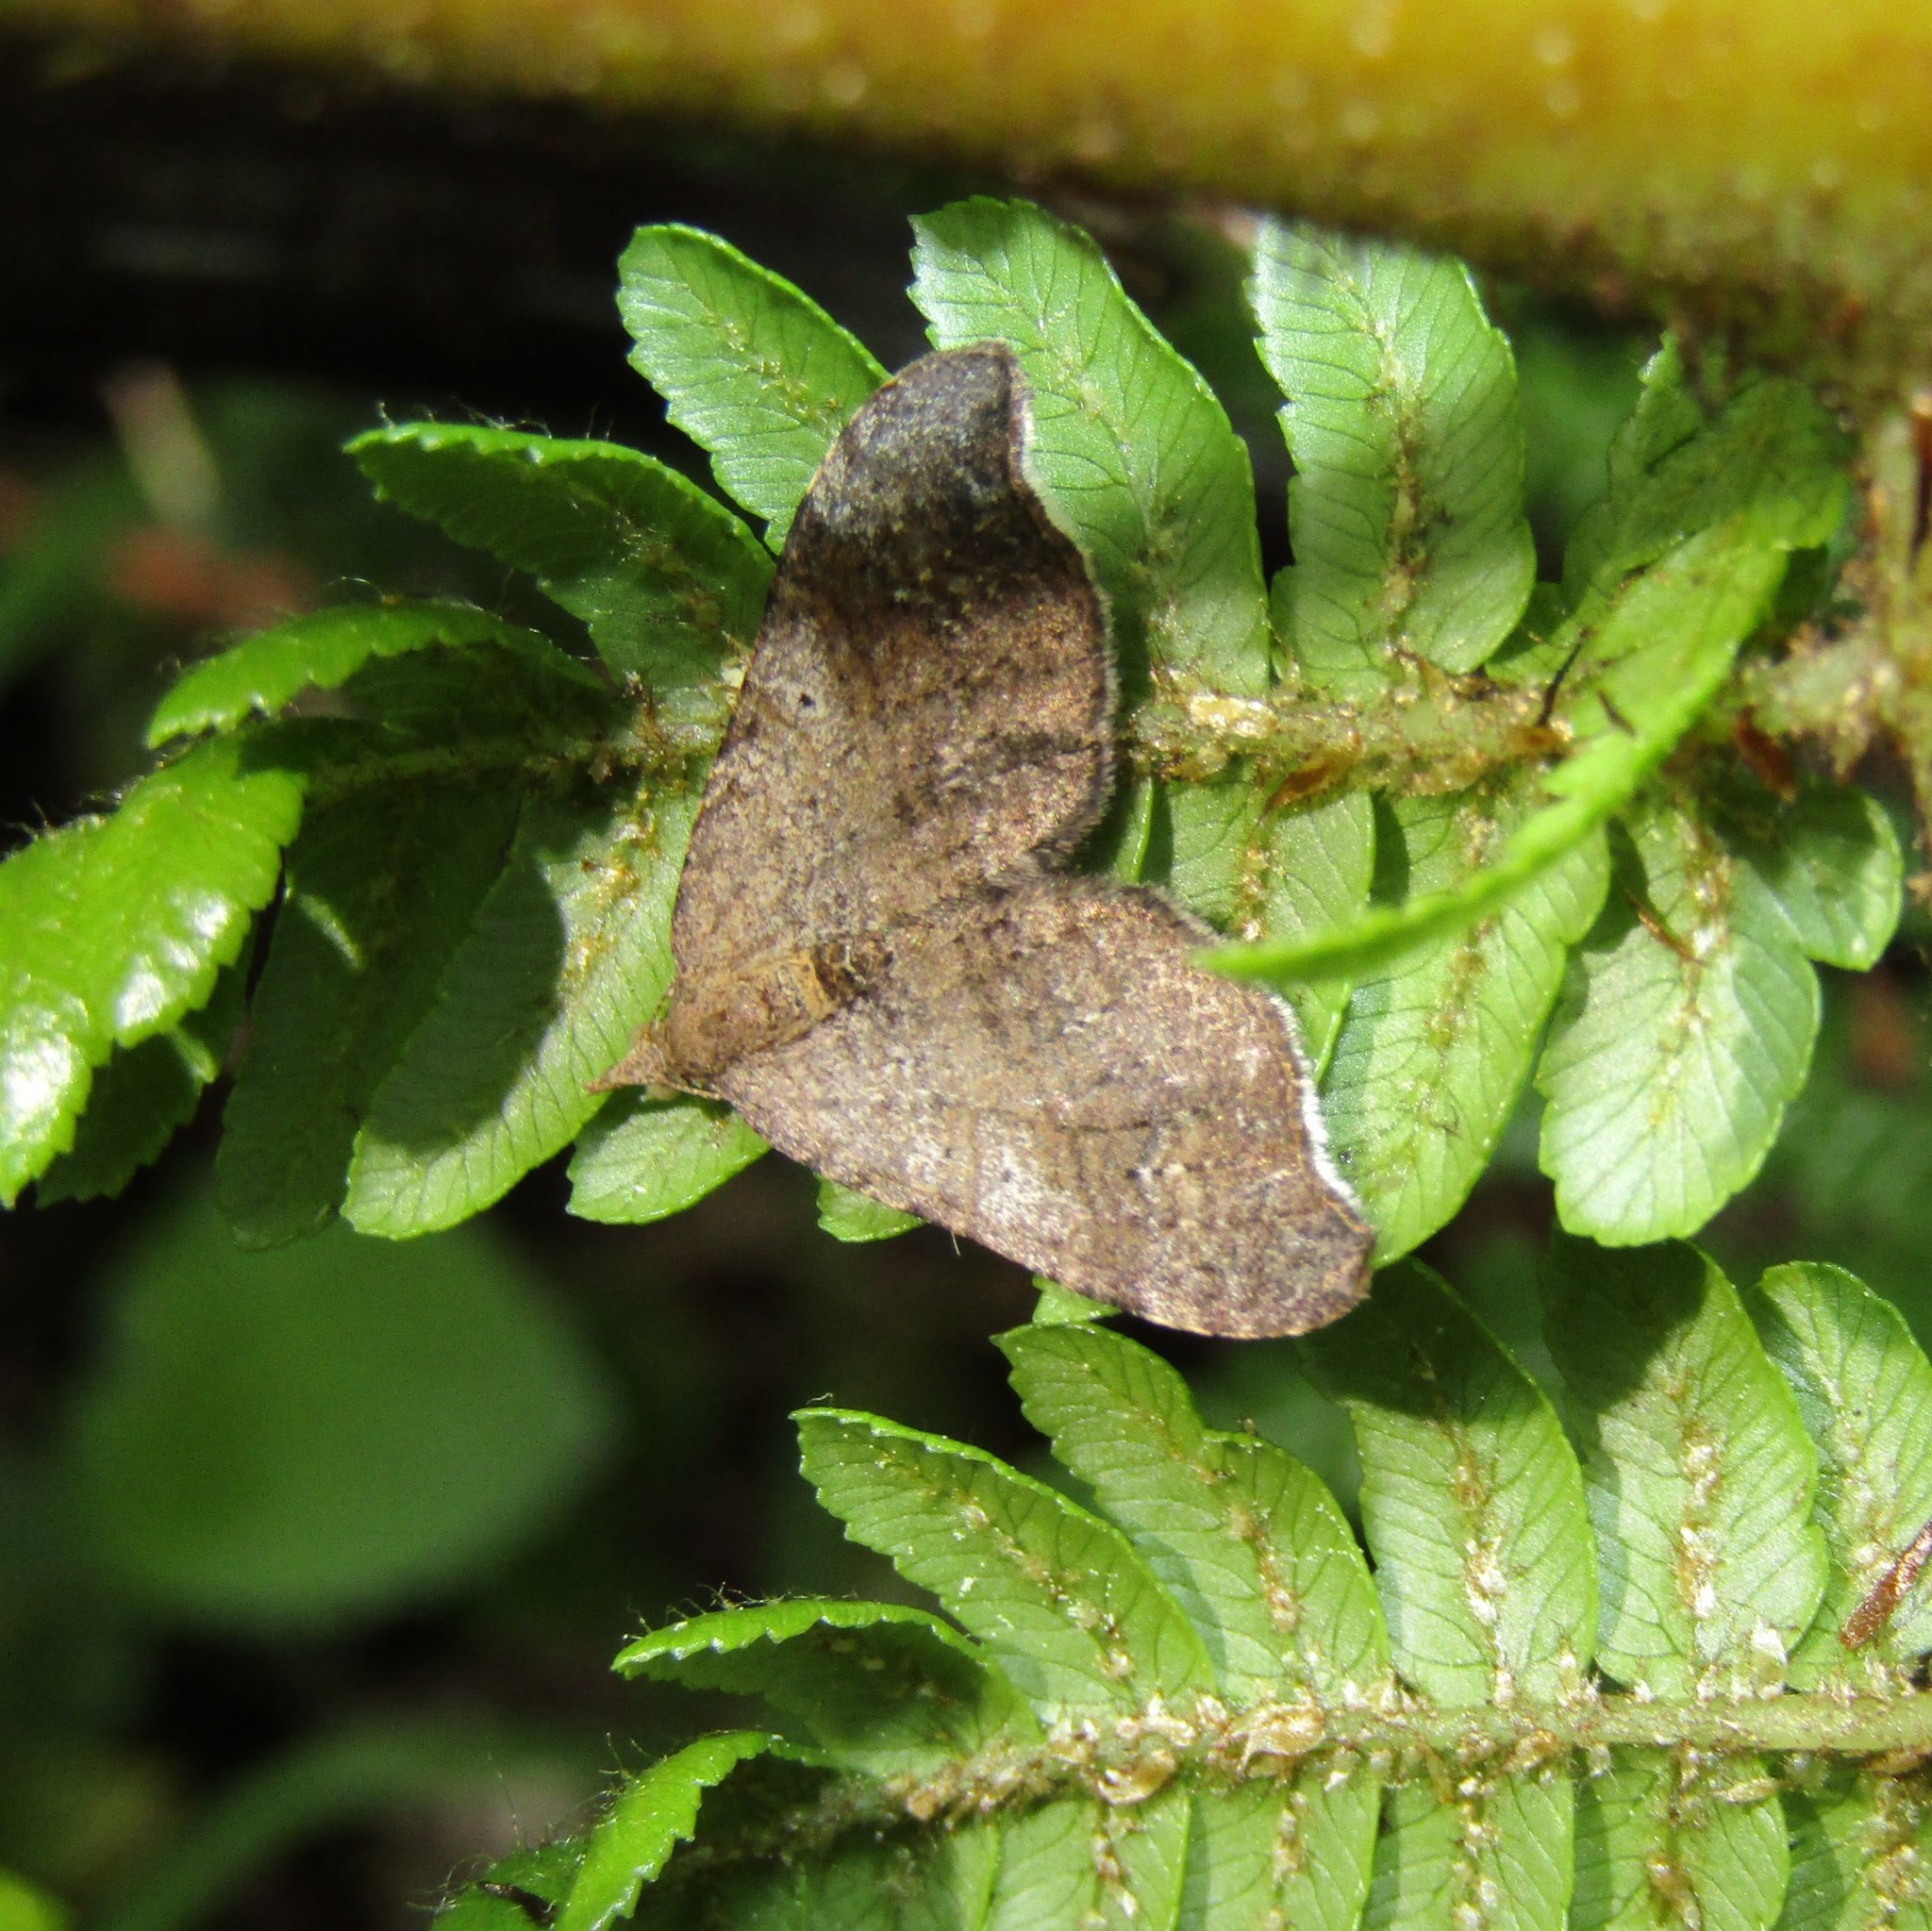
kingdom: Animalia
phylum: Arthropoda
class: Insecta
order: Lepidoptera
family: Geometridae
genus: Homodotis
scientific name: Homodotis megaspilata
